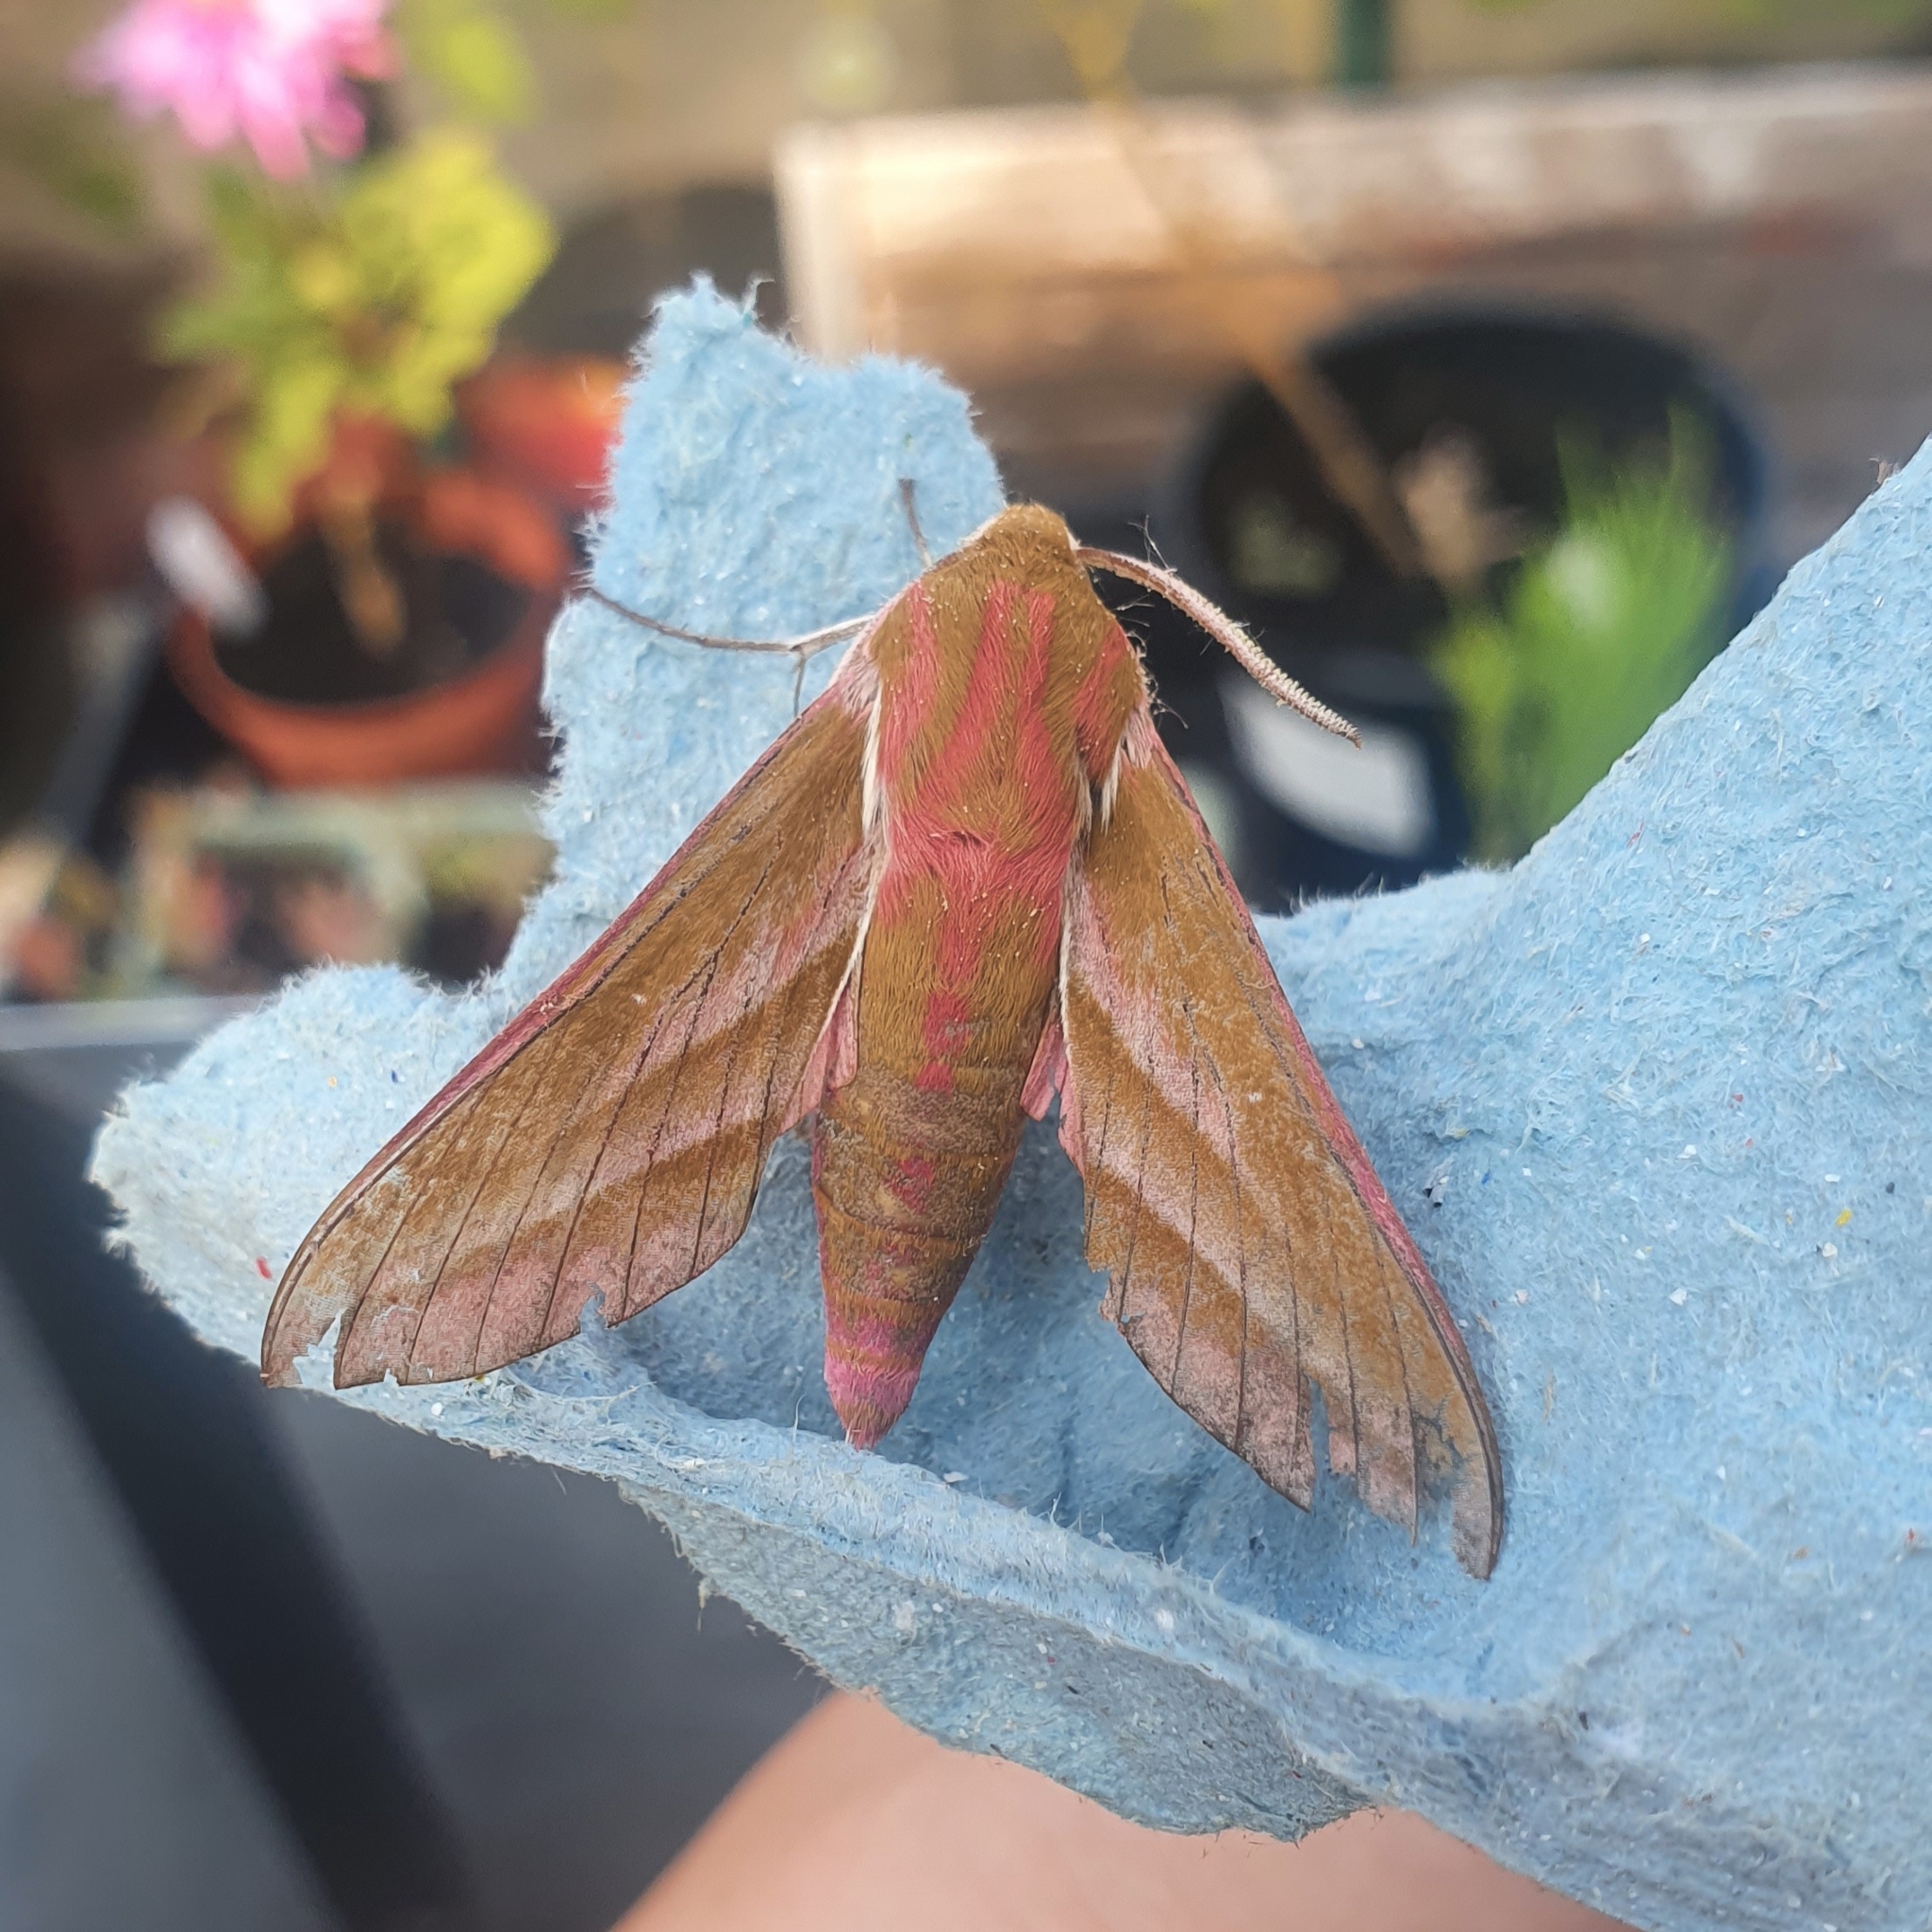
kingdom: Animalia
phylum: Arthropoda
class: Insecta
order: Lepidoptera
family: Sphingidae
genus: Deilephila
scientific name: Deilephila elpenor
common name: Elephant hawk-moth
